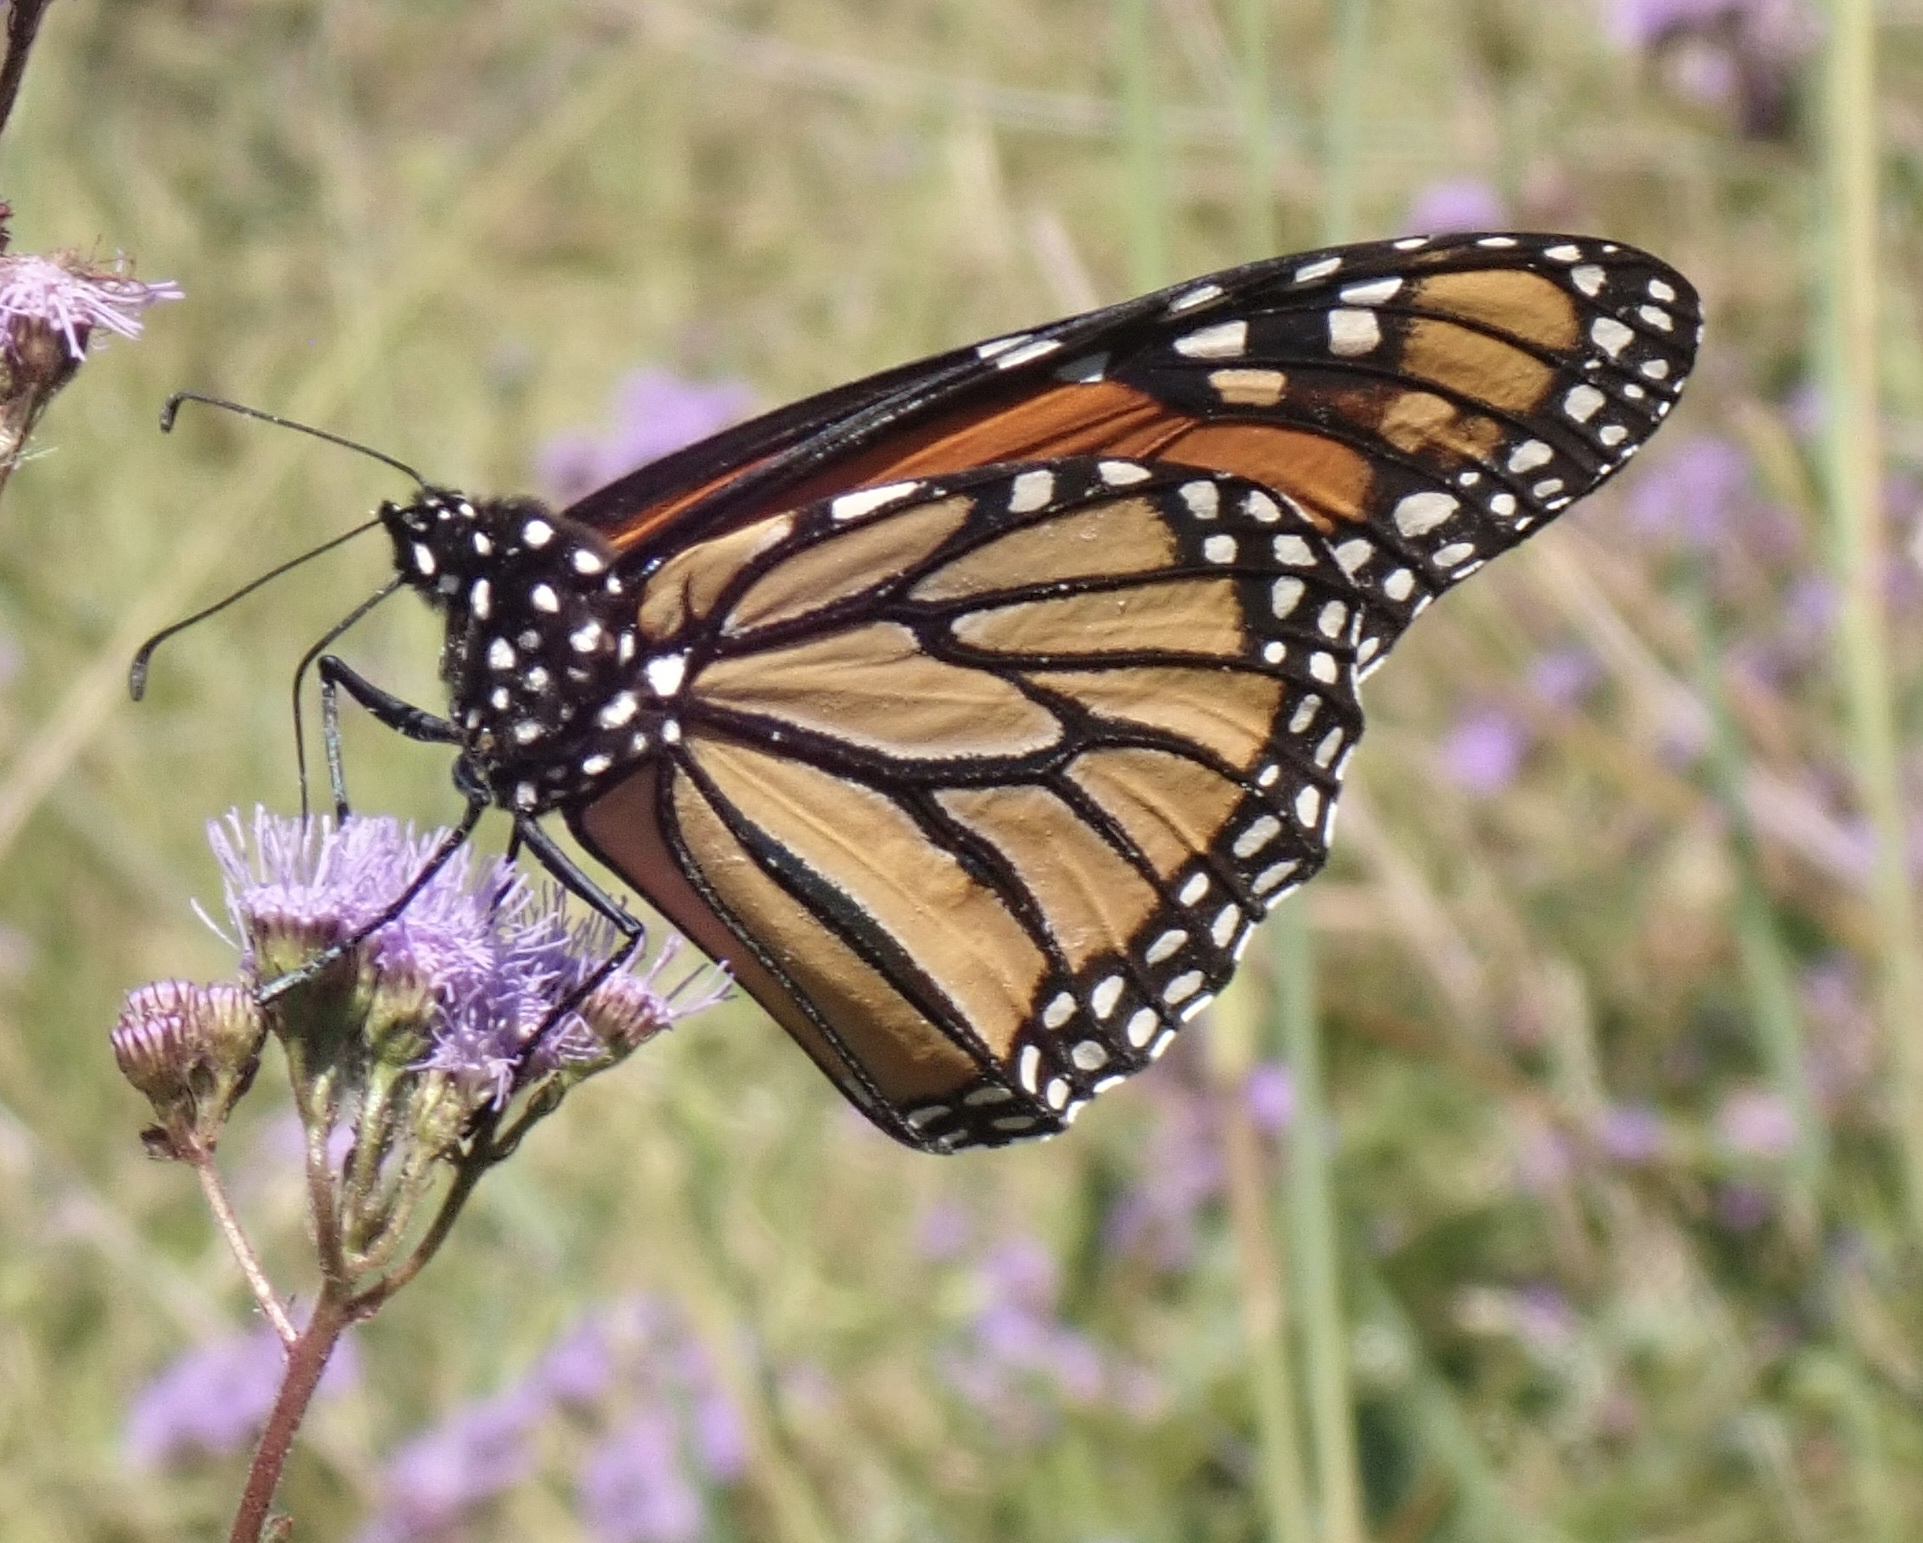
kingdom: Animalia
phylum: Arthropoda
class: Insecta
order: Lepidoptera
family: Nymphalidae
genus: Danaus
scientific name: Danaus plexippus
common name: Monarch
